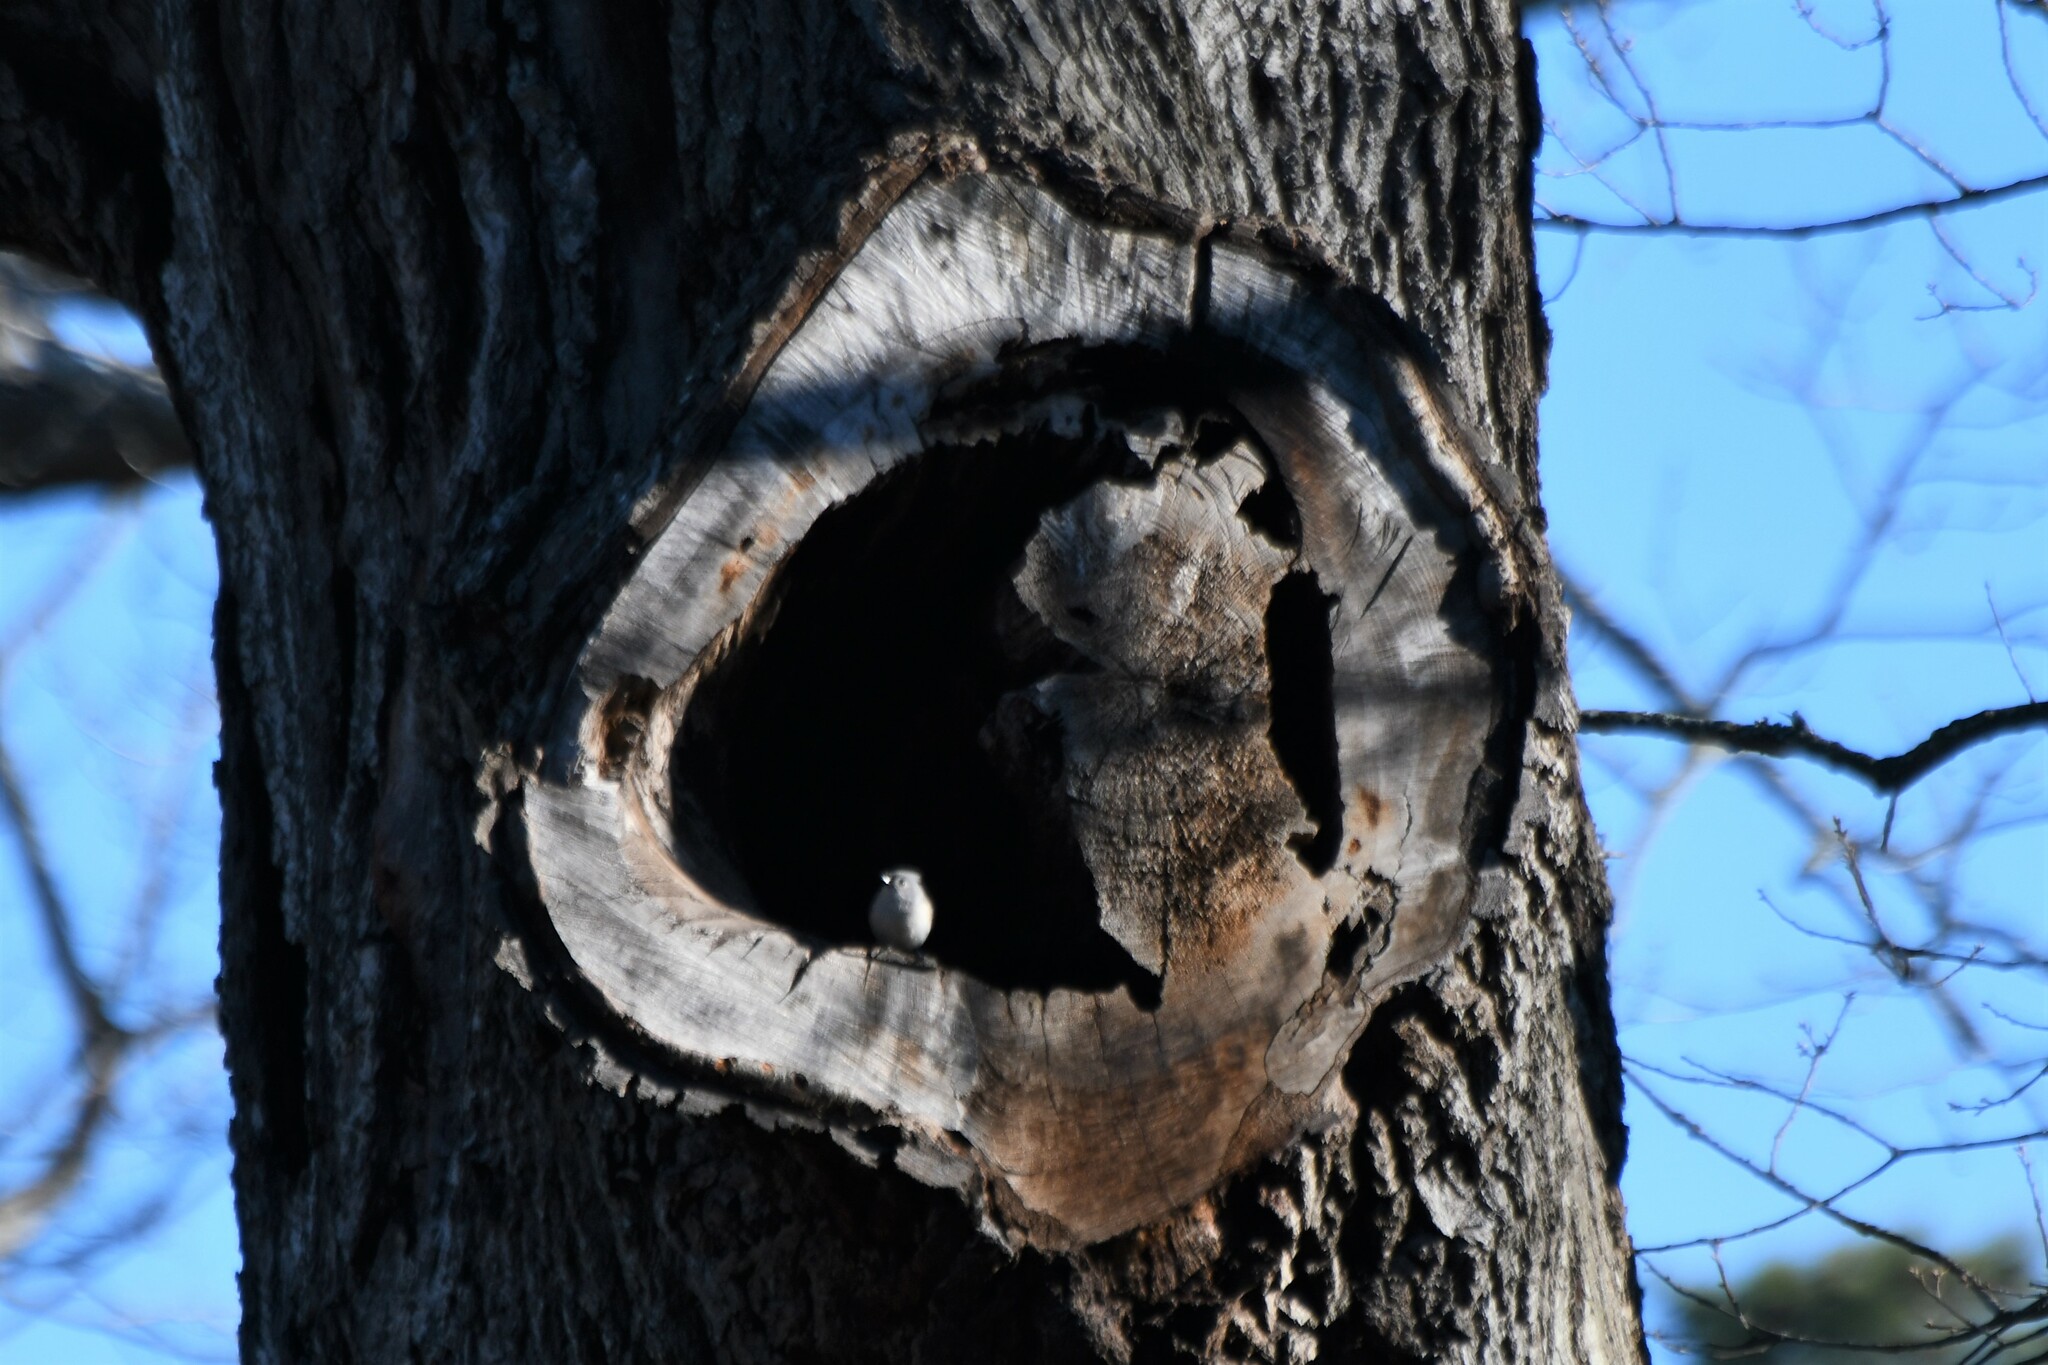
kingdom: Animalia
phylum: Chordata
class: Aves
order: Passeriformes
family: Paridae
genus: Baeolophus
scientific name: Baeolophus bicolor
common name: Tufted titmouse
